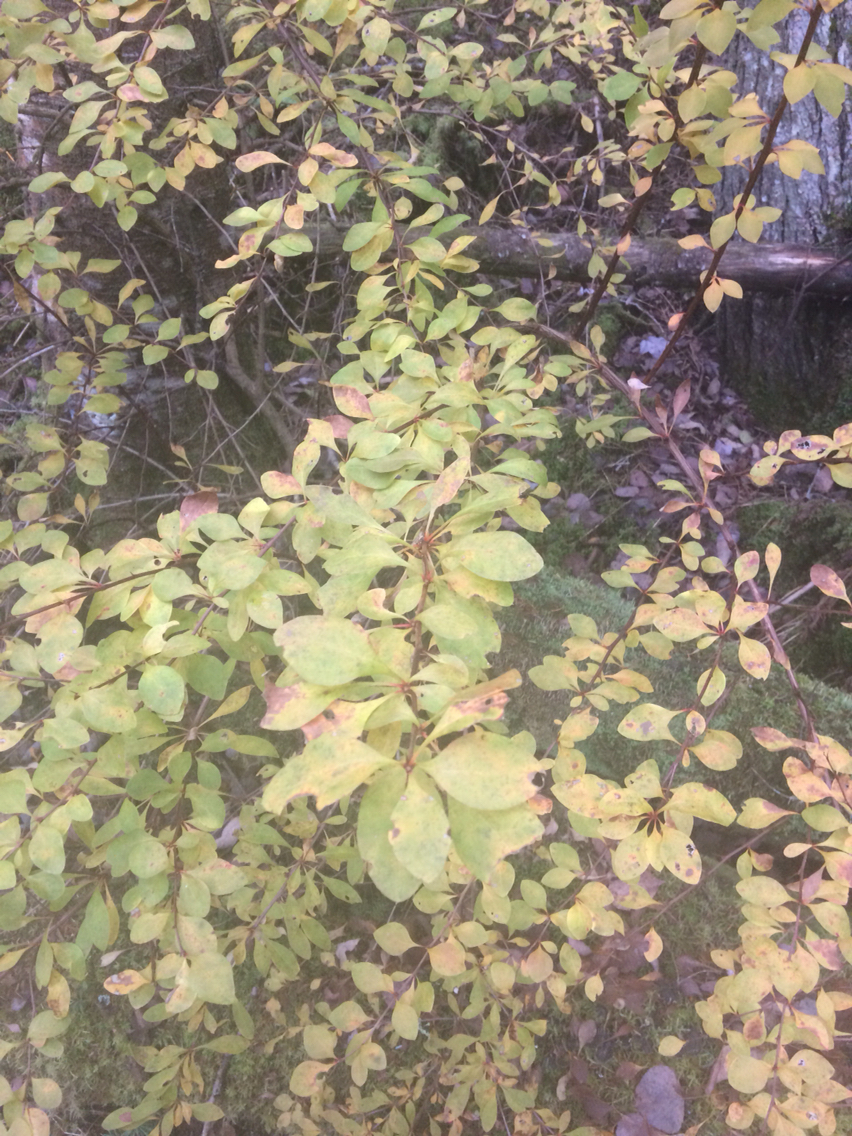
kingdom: Plantae
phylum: Tracheophyta
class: Magnoliopsida
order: Ranunculales
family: Berberidaceae
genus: Berberis
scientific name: Berberis thunbergii
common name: Japanese barberry
